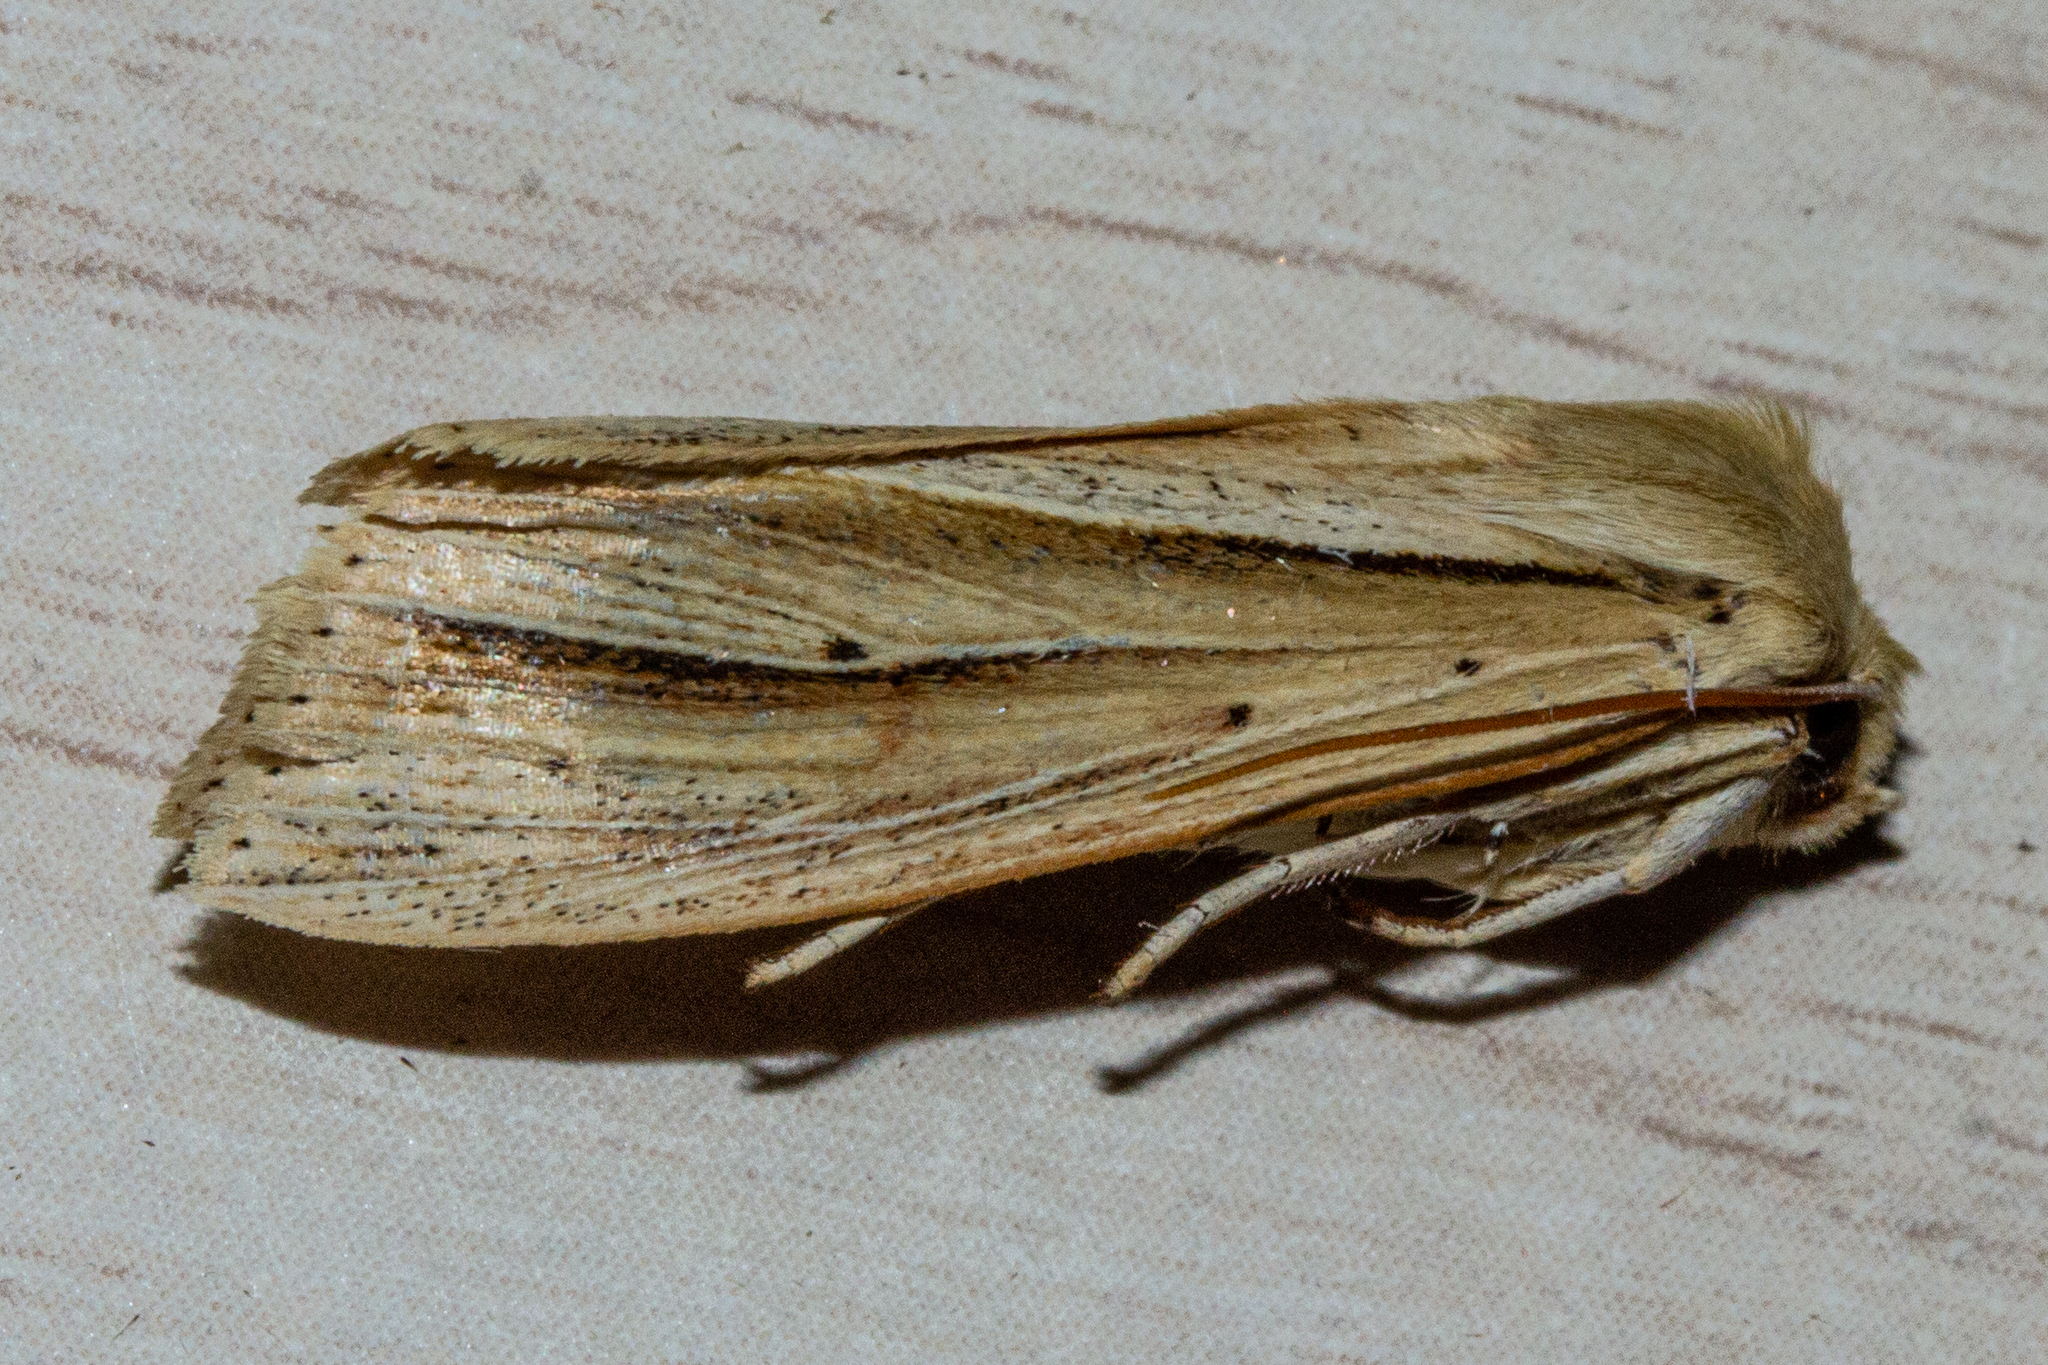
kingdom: Animalia
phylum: Arthropoda
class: Insecta
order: Lepidoptera
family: Noctuidae
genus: Ichneutica
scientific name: Ichneutica sulcana
